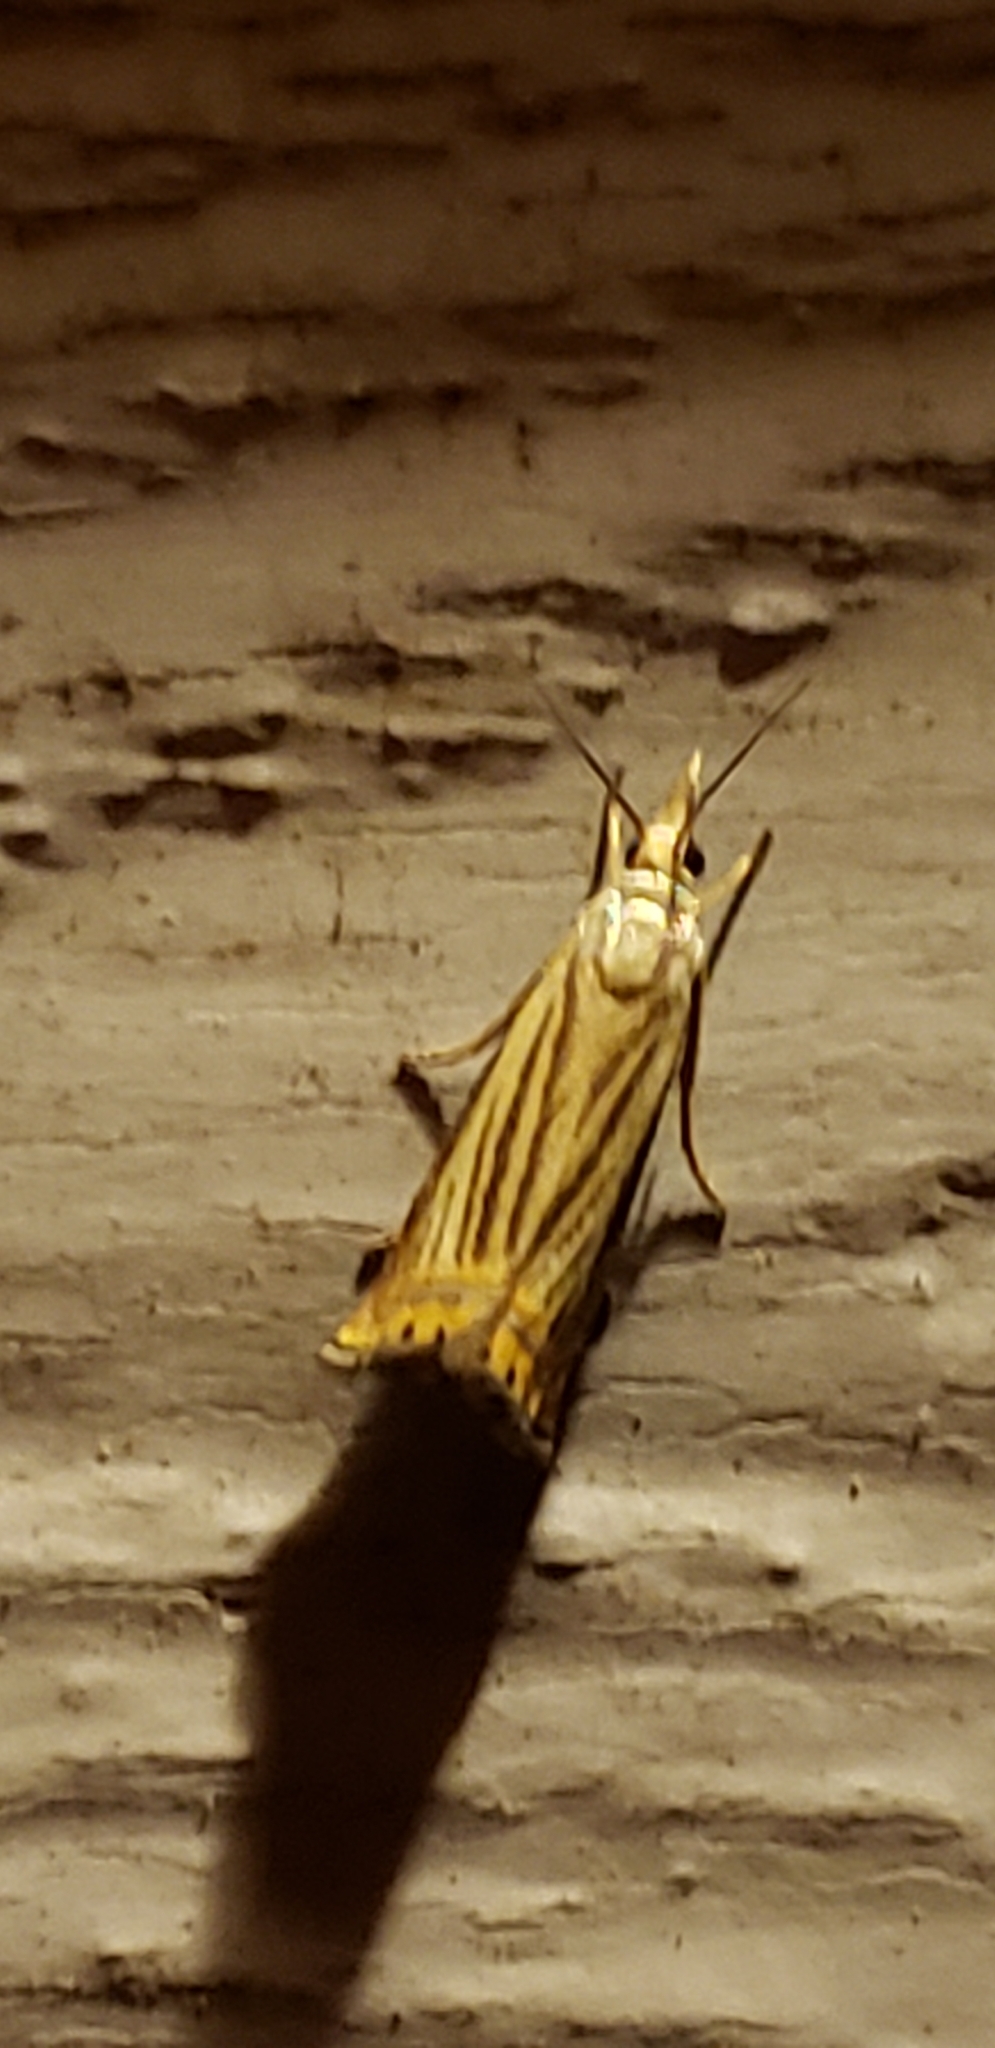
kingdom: Animalia
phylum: Arthropoda
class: Insecta
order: Lepidoptera
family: Crambidae
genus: Chrysoteuchia
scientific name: Chrysoteuchia topiarius
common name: Topiary grass-veneer
